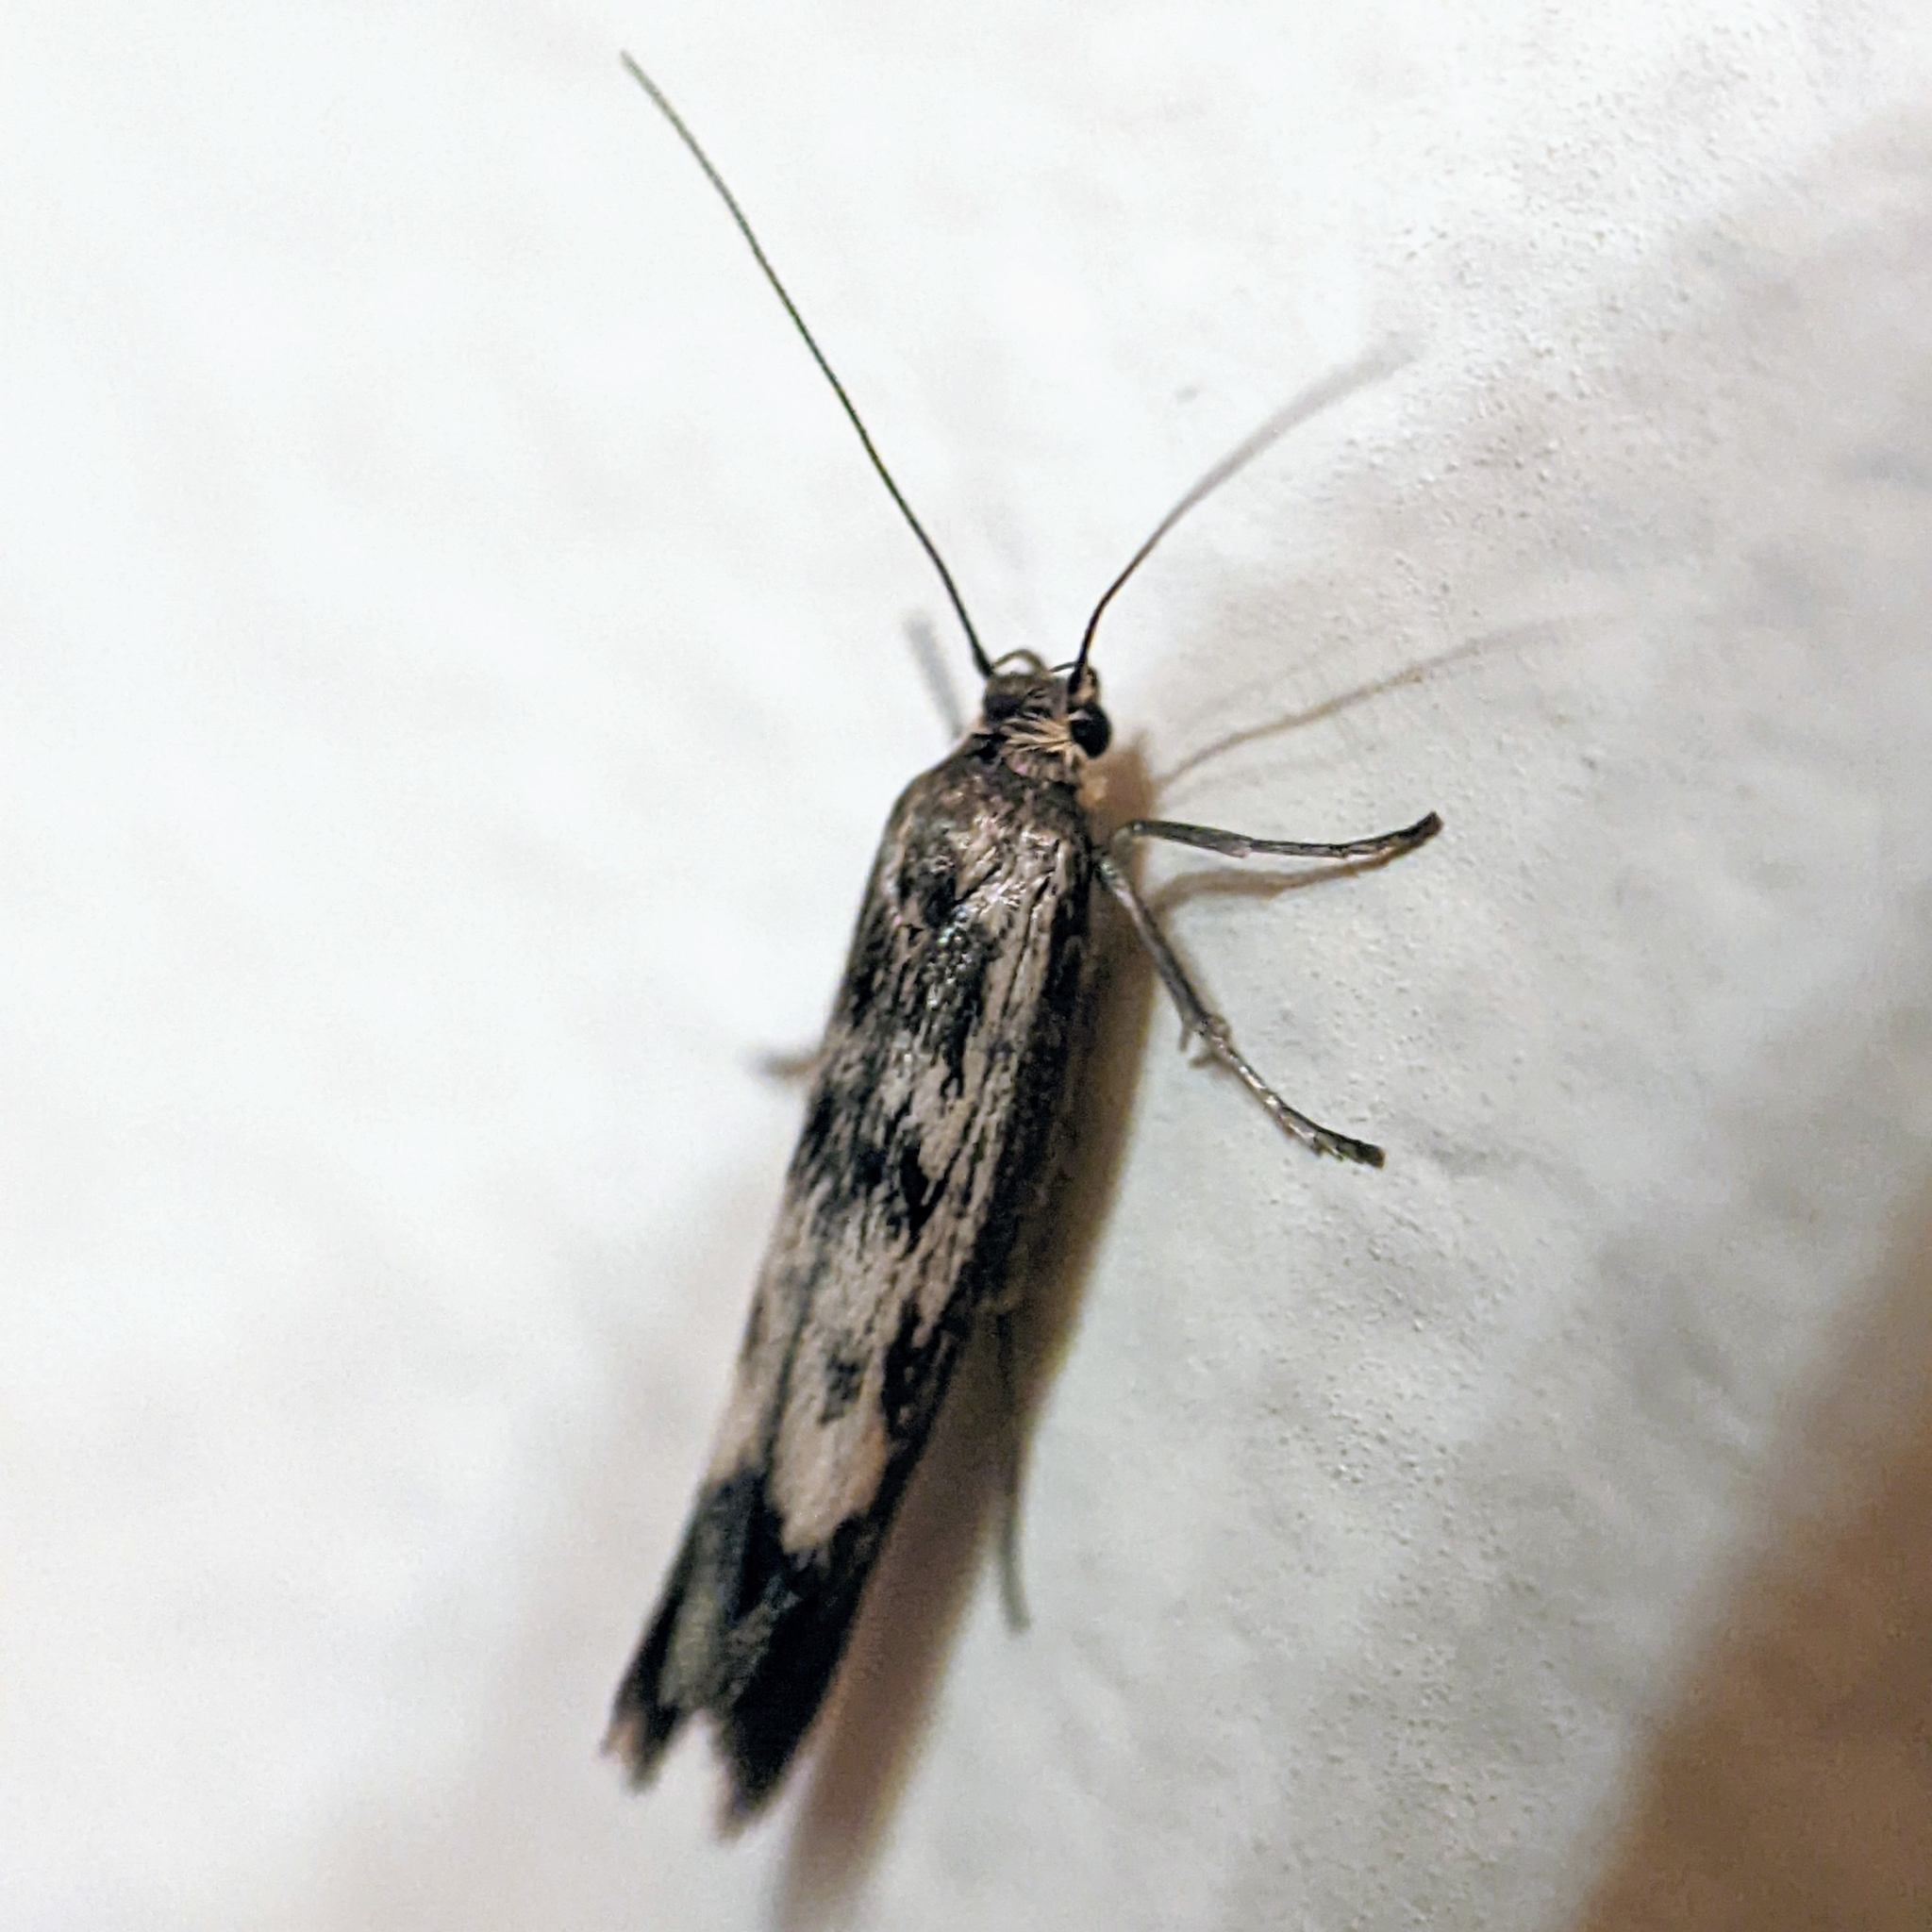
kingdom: Animalia
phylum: Arthropoda
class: Insecta
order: Lepidoptera
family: Scythrididae
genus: Scythris
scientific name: Scythris limbella
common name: Goosefoot owlet
